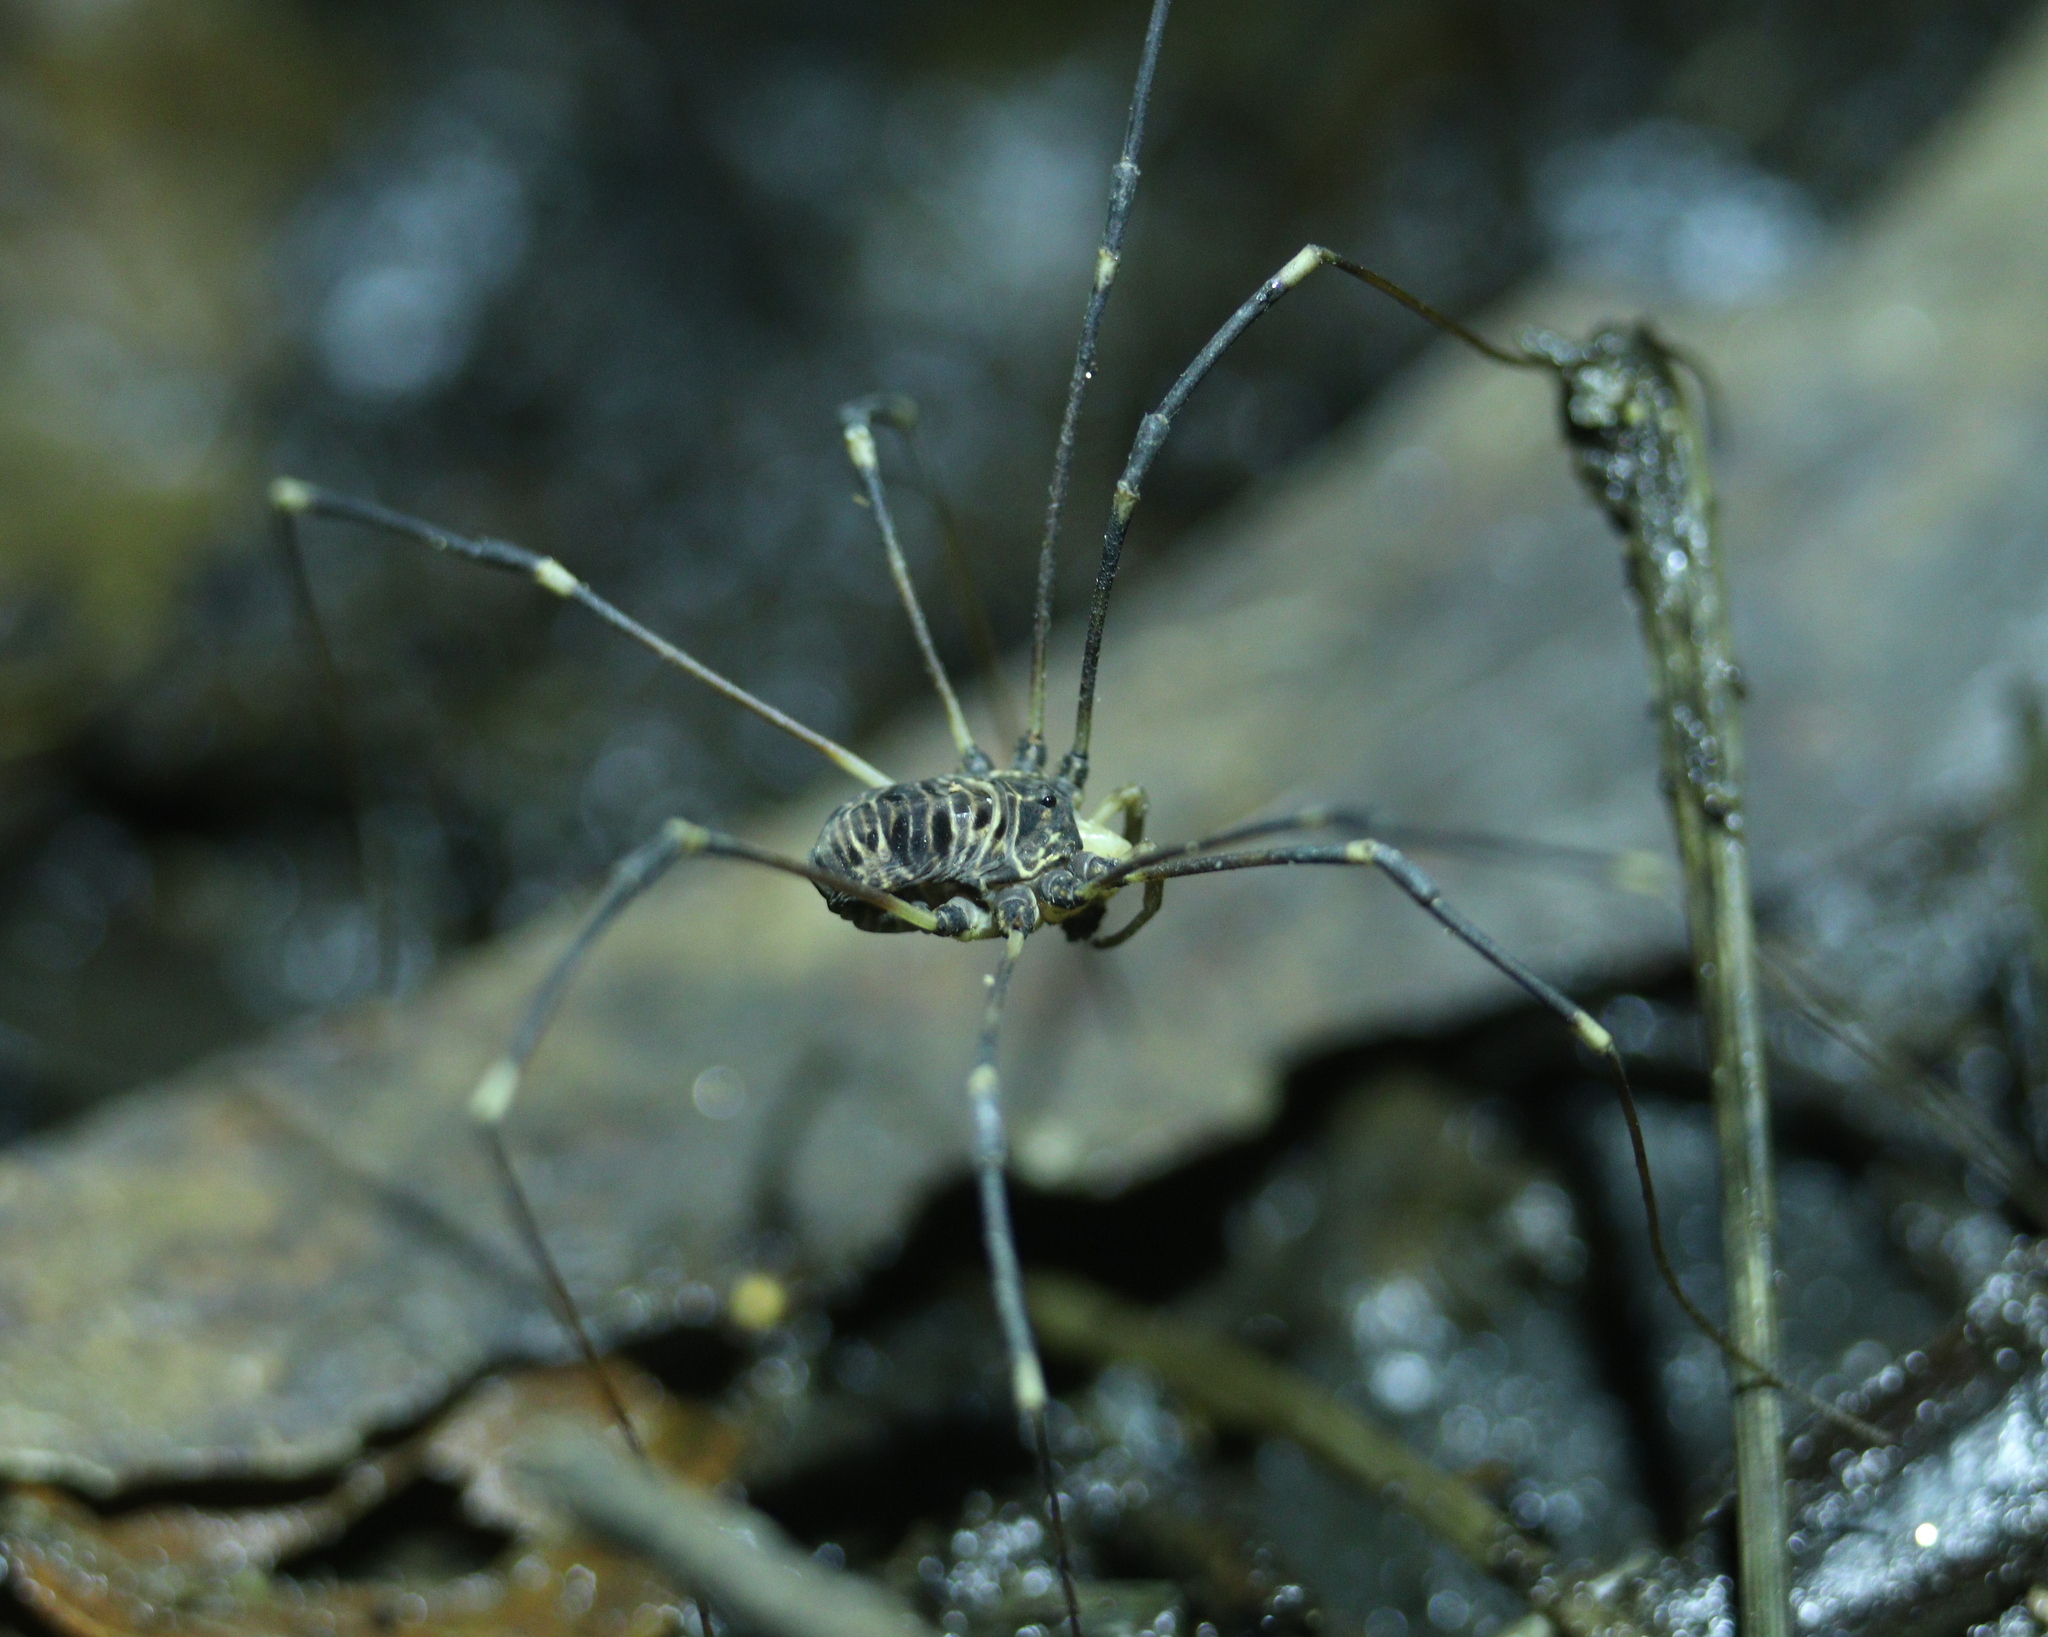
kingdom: Animalia
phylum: Arthropoda
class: Arachnida
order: Opiliones
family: Sclerosomatidae
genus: Gyas
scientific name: Gyas titanus
